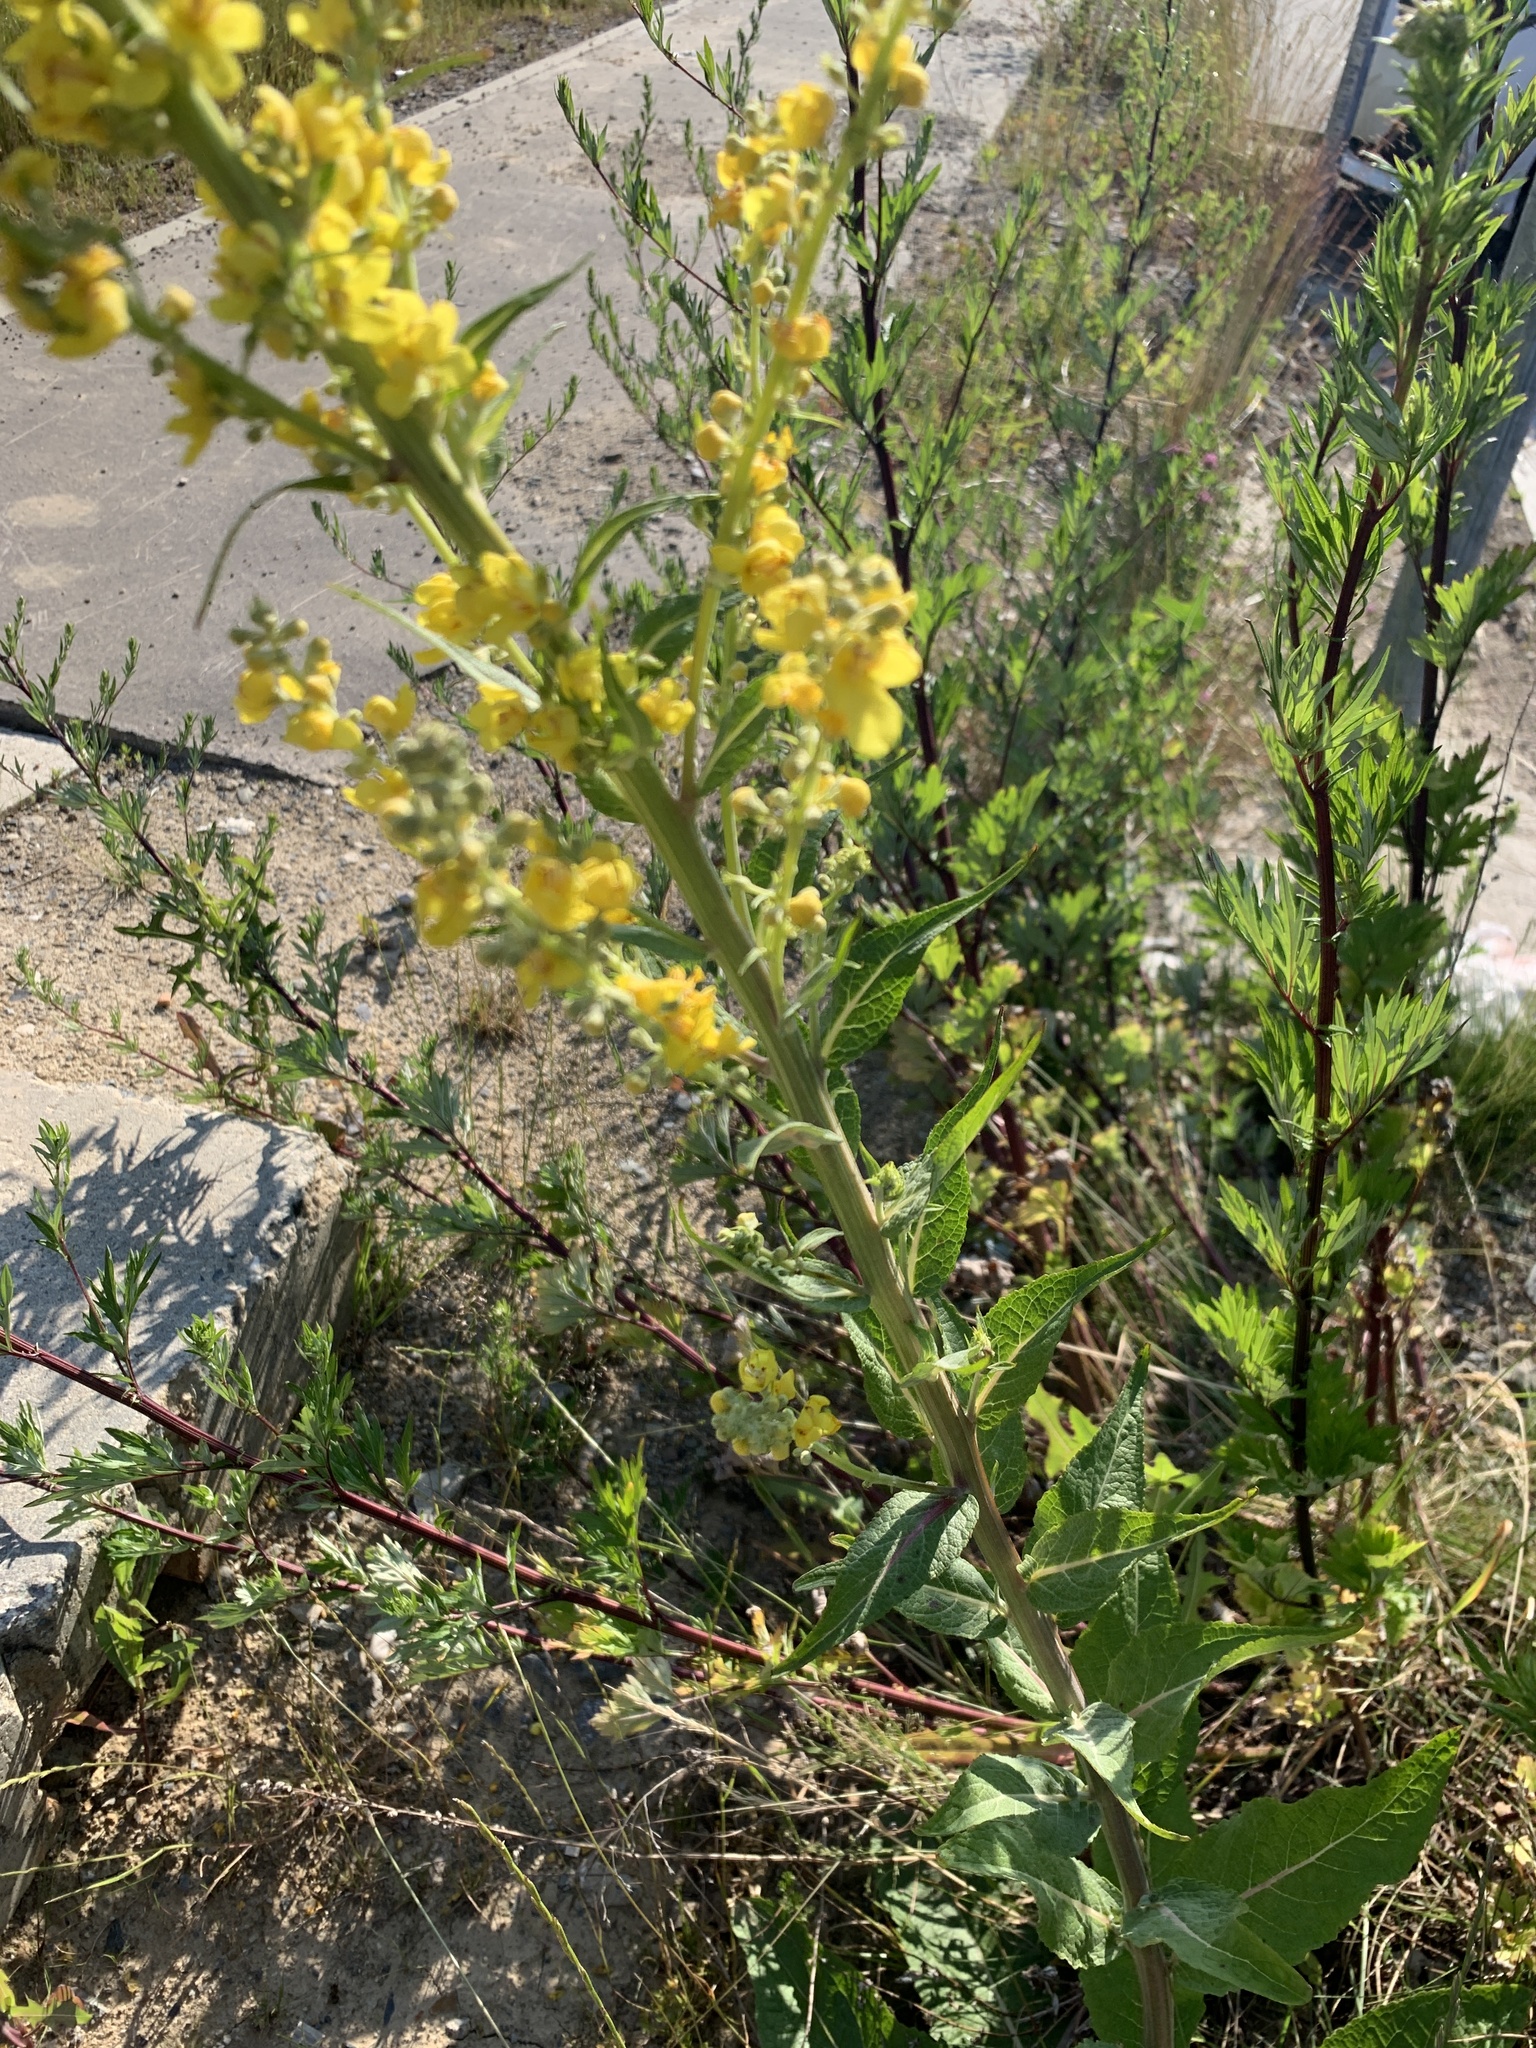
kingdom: Plantae
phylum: Tracheophyta
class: Magnoliopsida
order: Lamiales
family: Scrophulariaceae
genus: Verbascum
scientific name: Verbascum lychnitis
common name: White mullein
